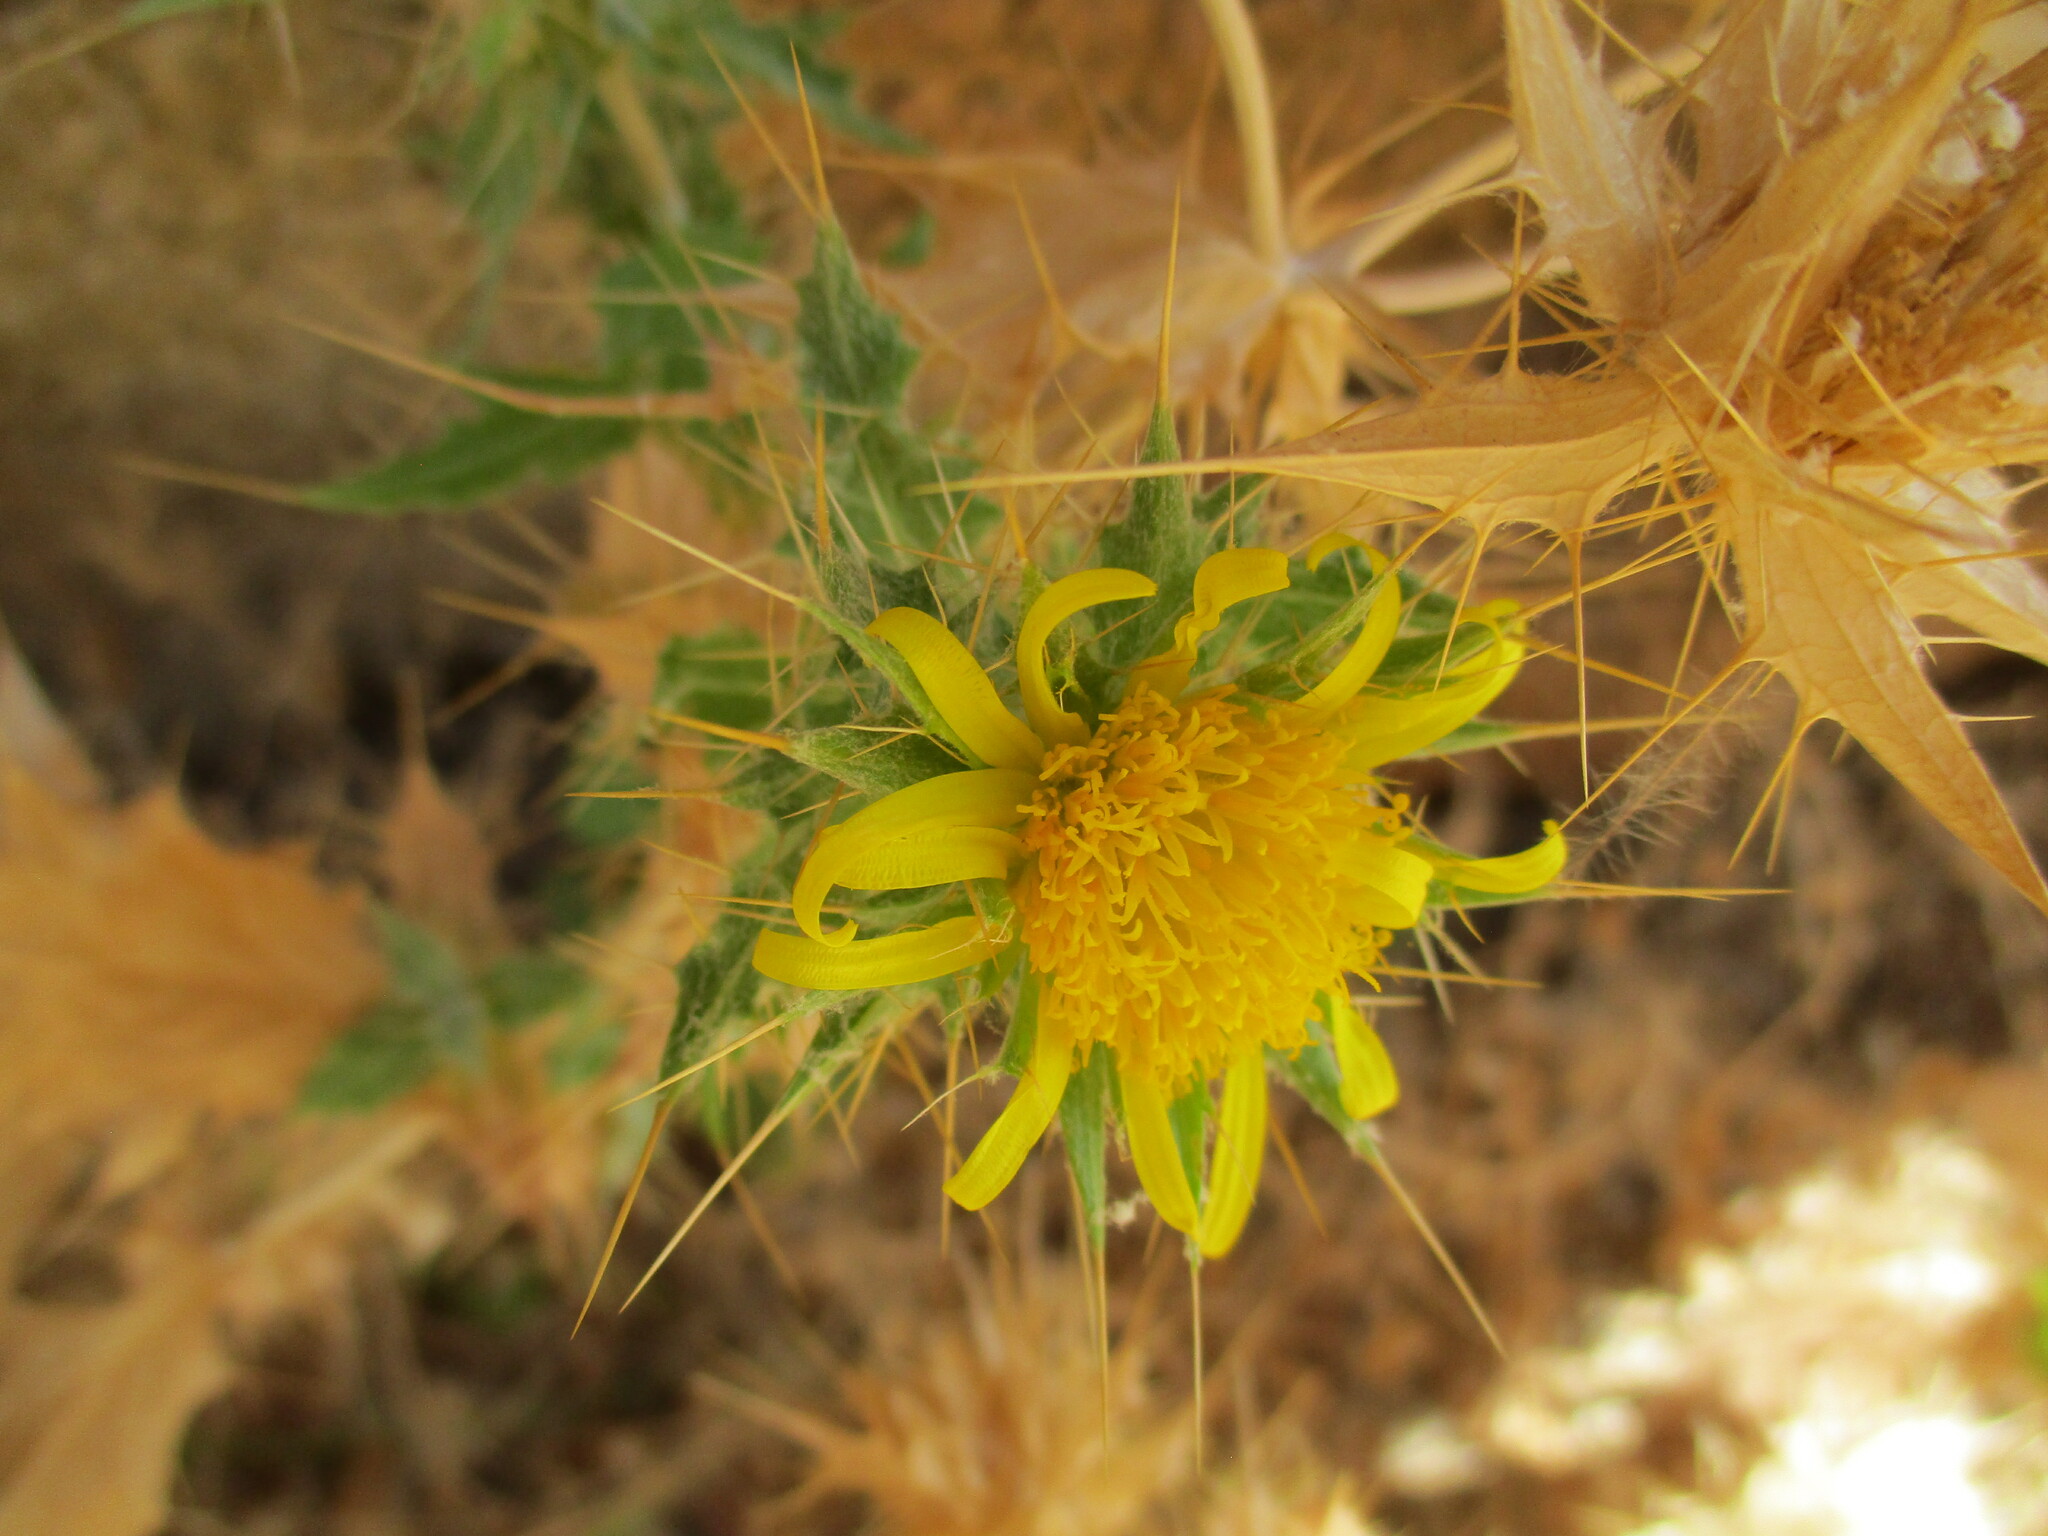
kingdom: Plantae
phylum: Tracheophyta
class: Magnoliopsida
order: Asterales
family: Asteraceae
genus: Berkheya
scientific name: Berkheya spinosissima
